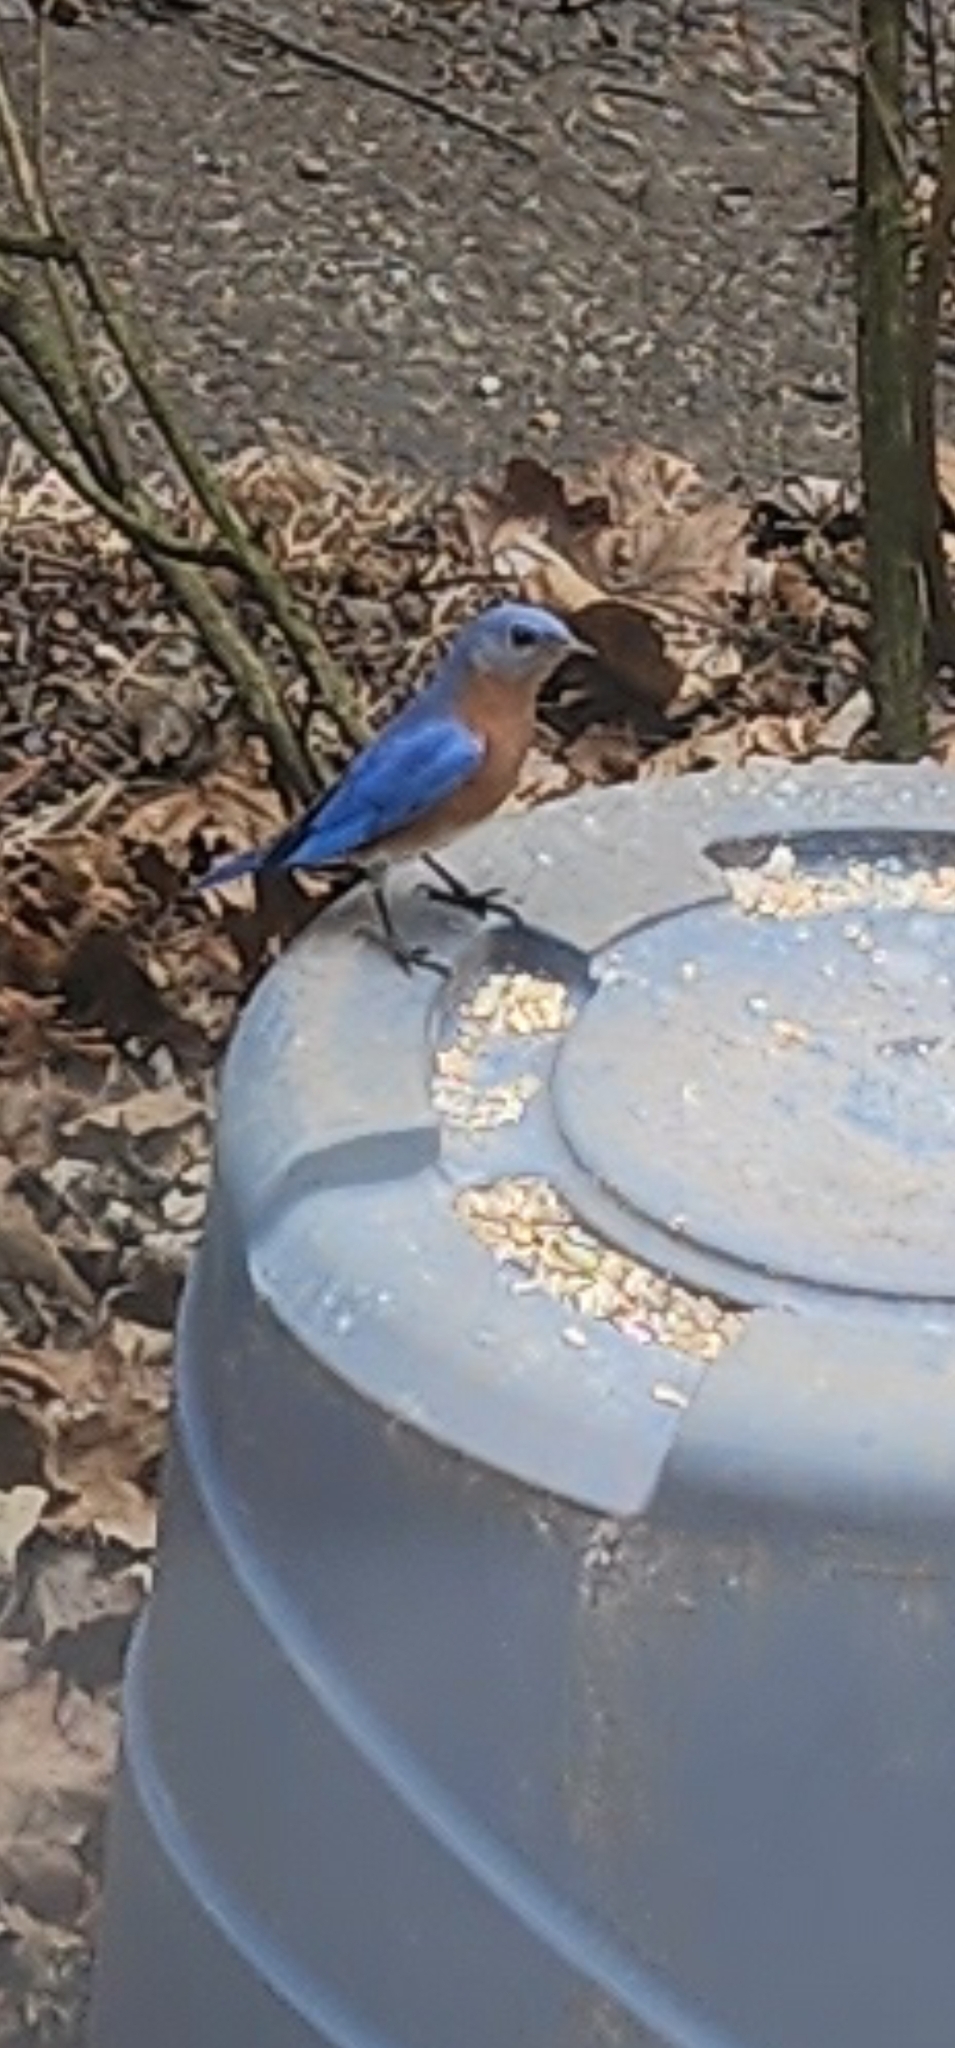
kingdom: Animalia
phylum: Chordata
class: Aves
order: Passeriformes
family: Turdidae
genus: Sialia
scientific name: Sialia sialis
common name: Eastern bluebird
